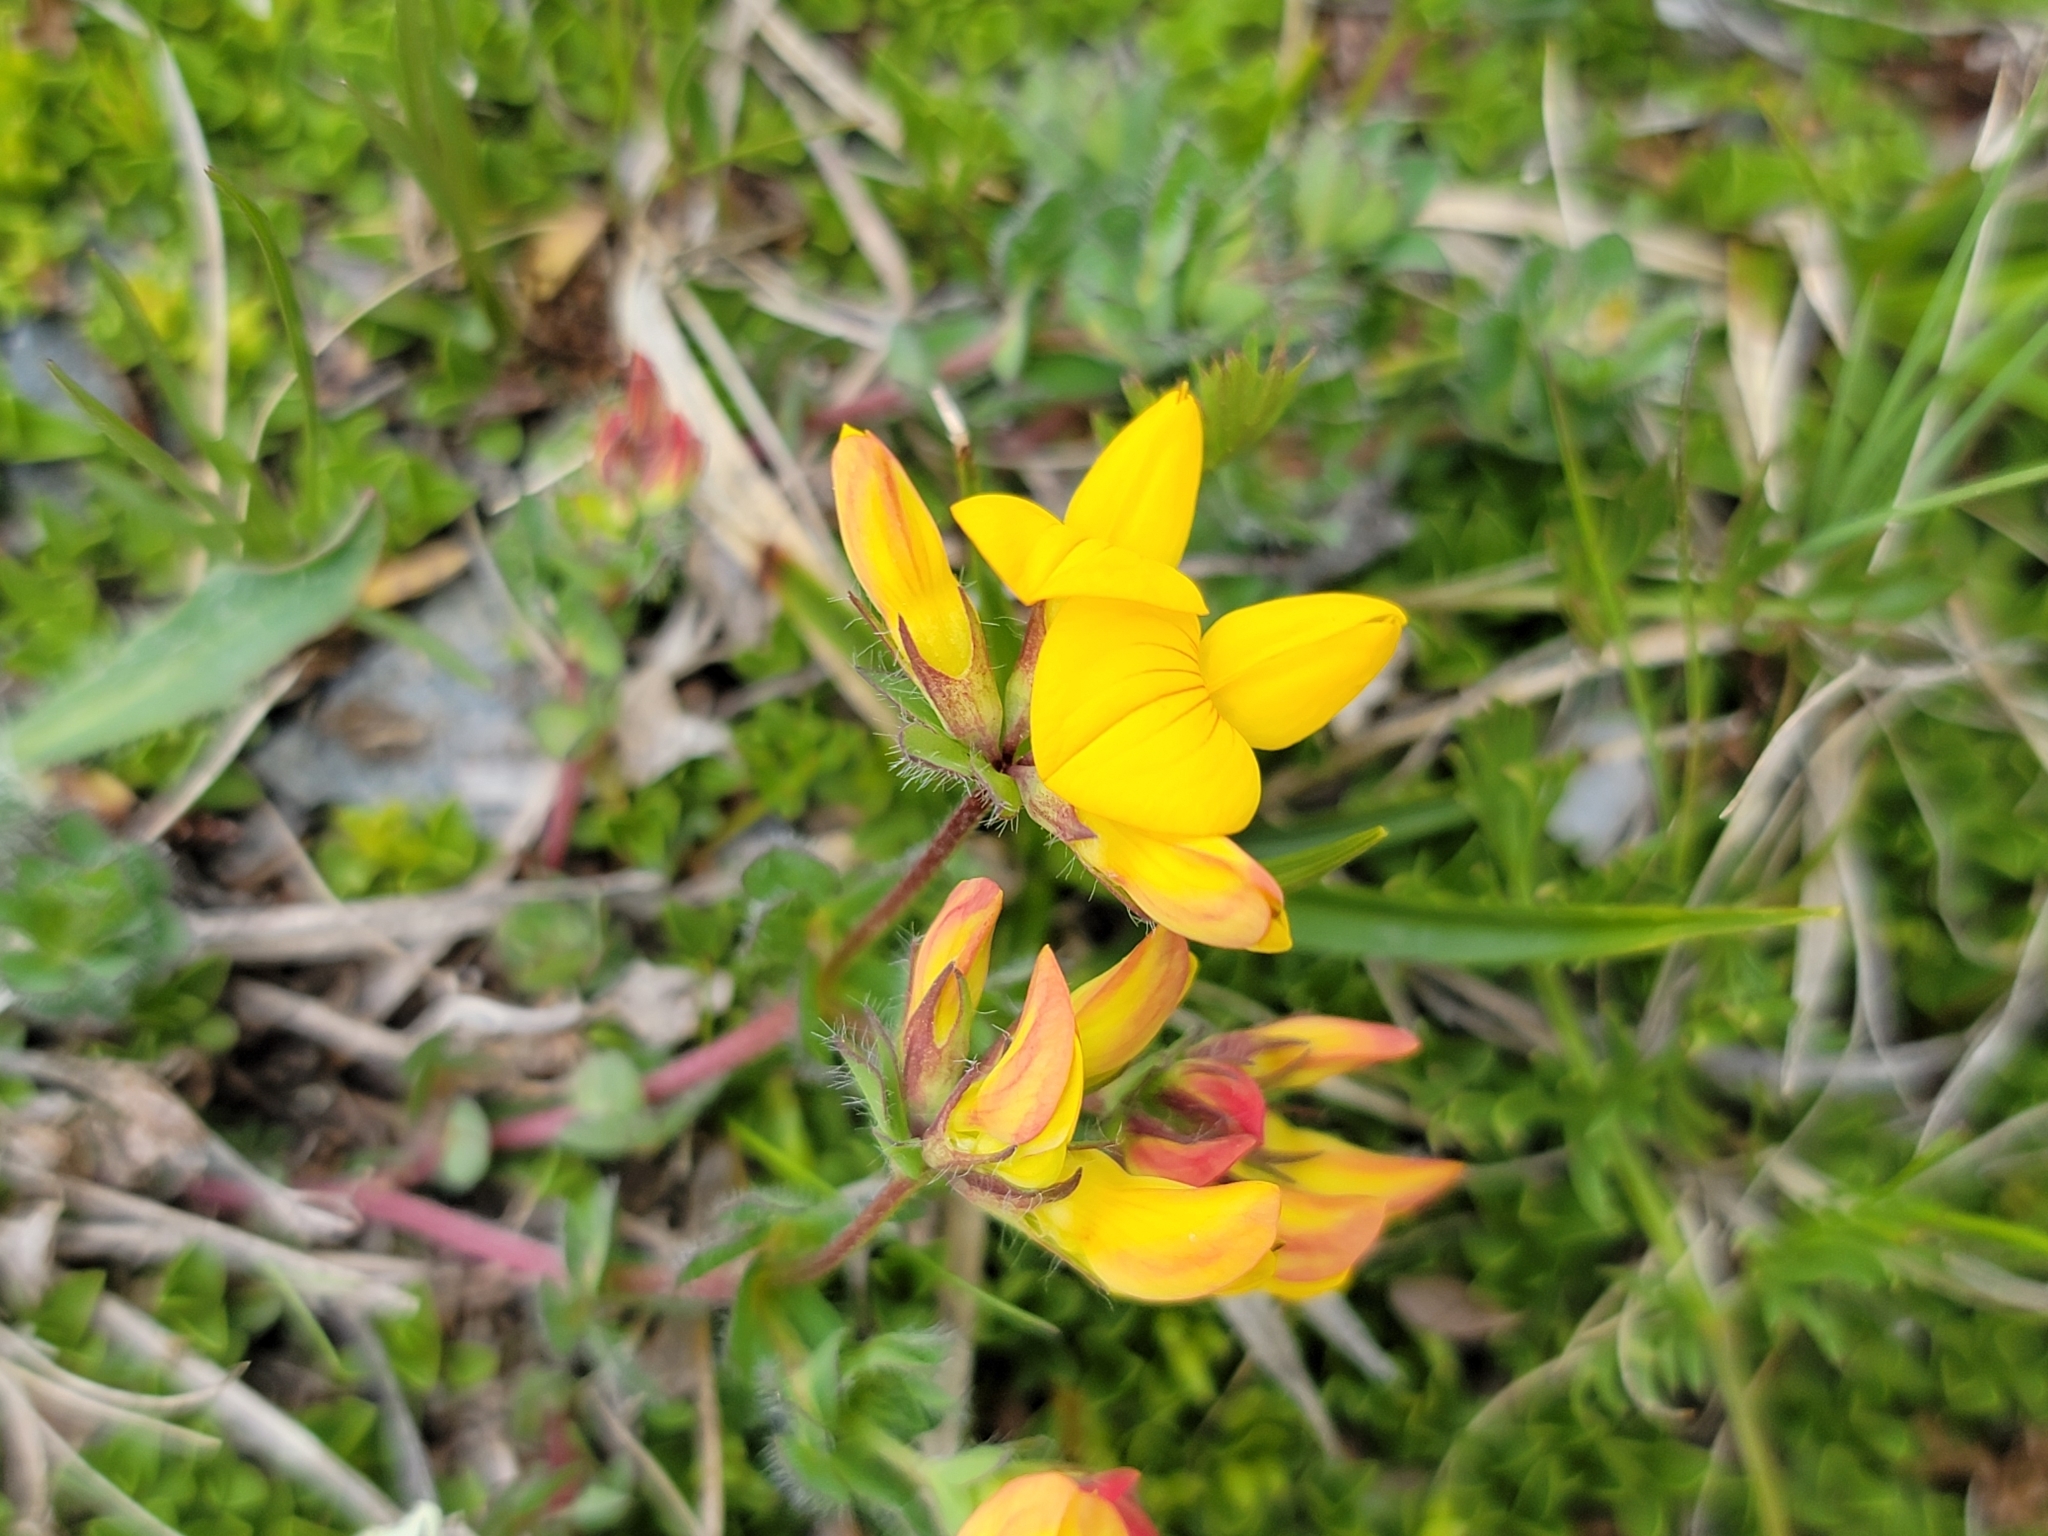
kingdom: Plantae
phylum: Tracheophyta
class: Magnoliopsida
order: Fabales
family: Fabaceae
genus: Lotus
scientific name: Lotus corniculatus
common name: Common bird's-foot-trefoil
